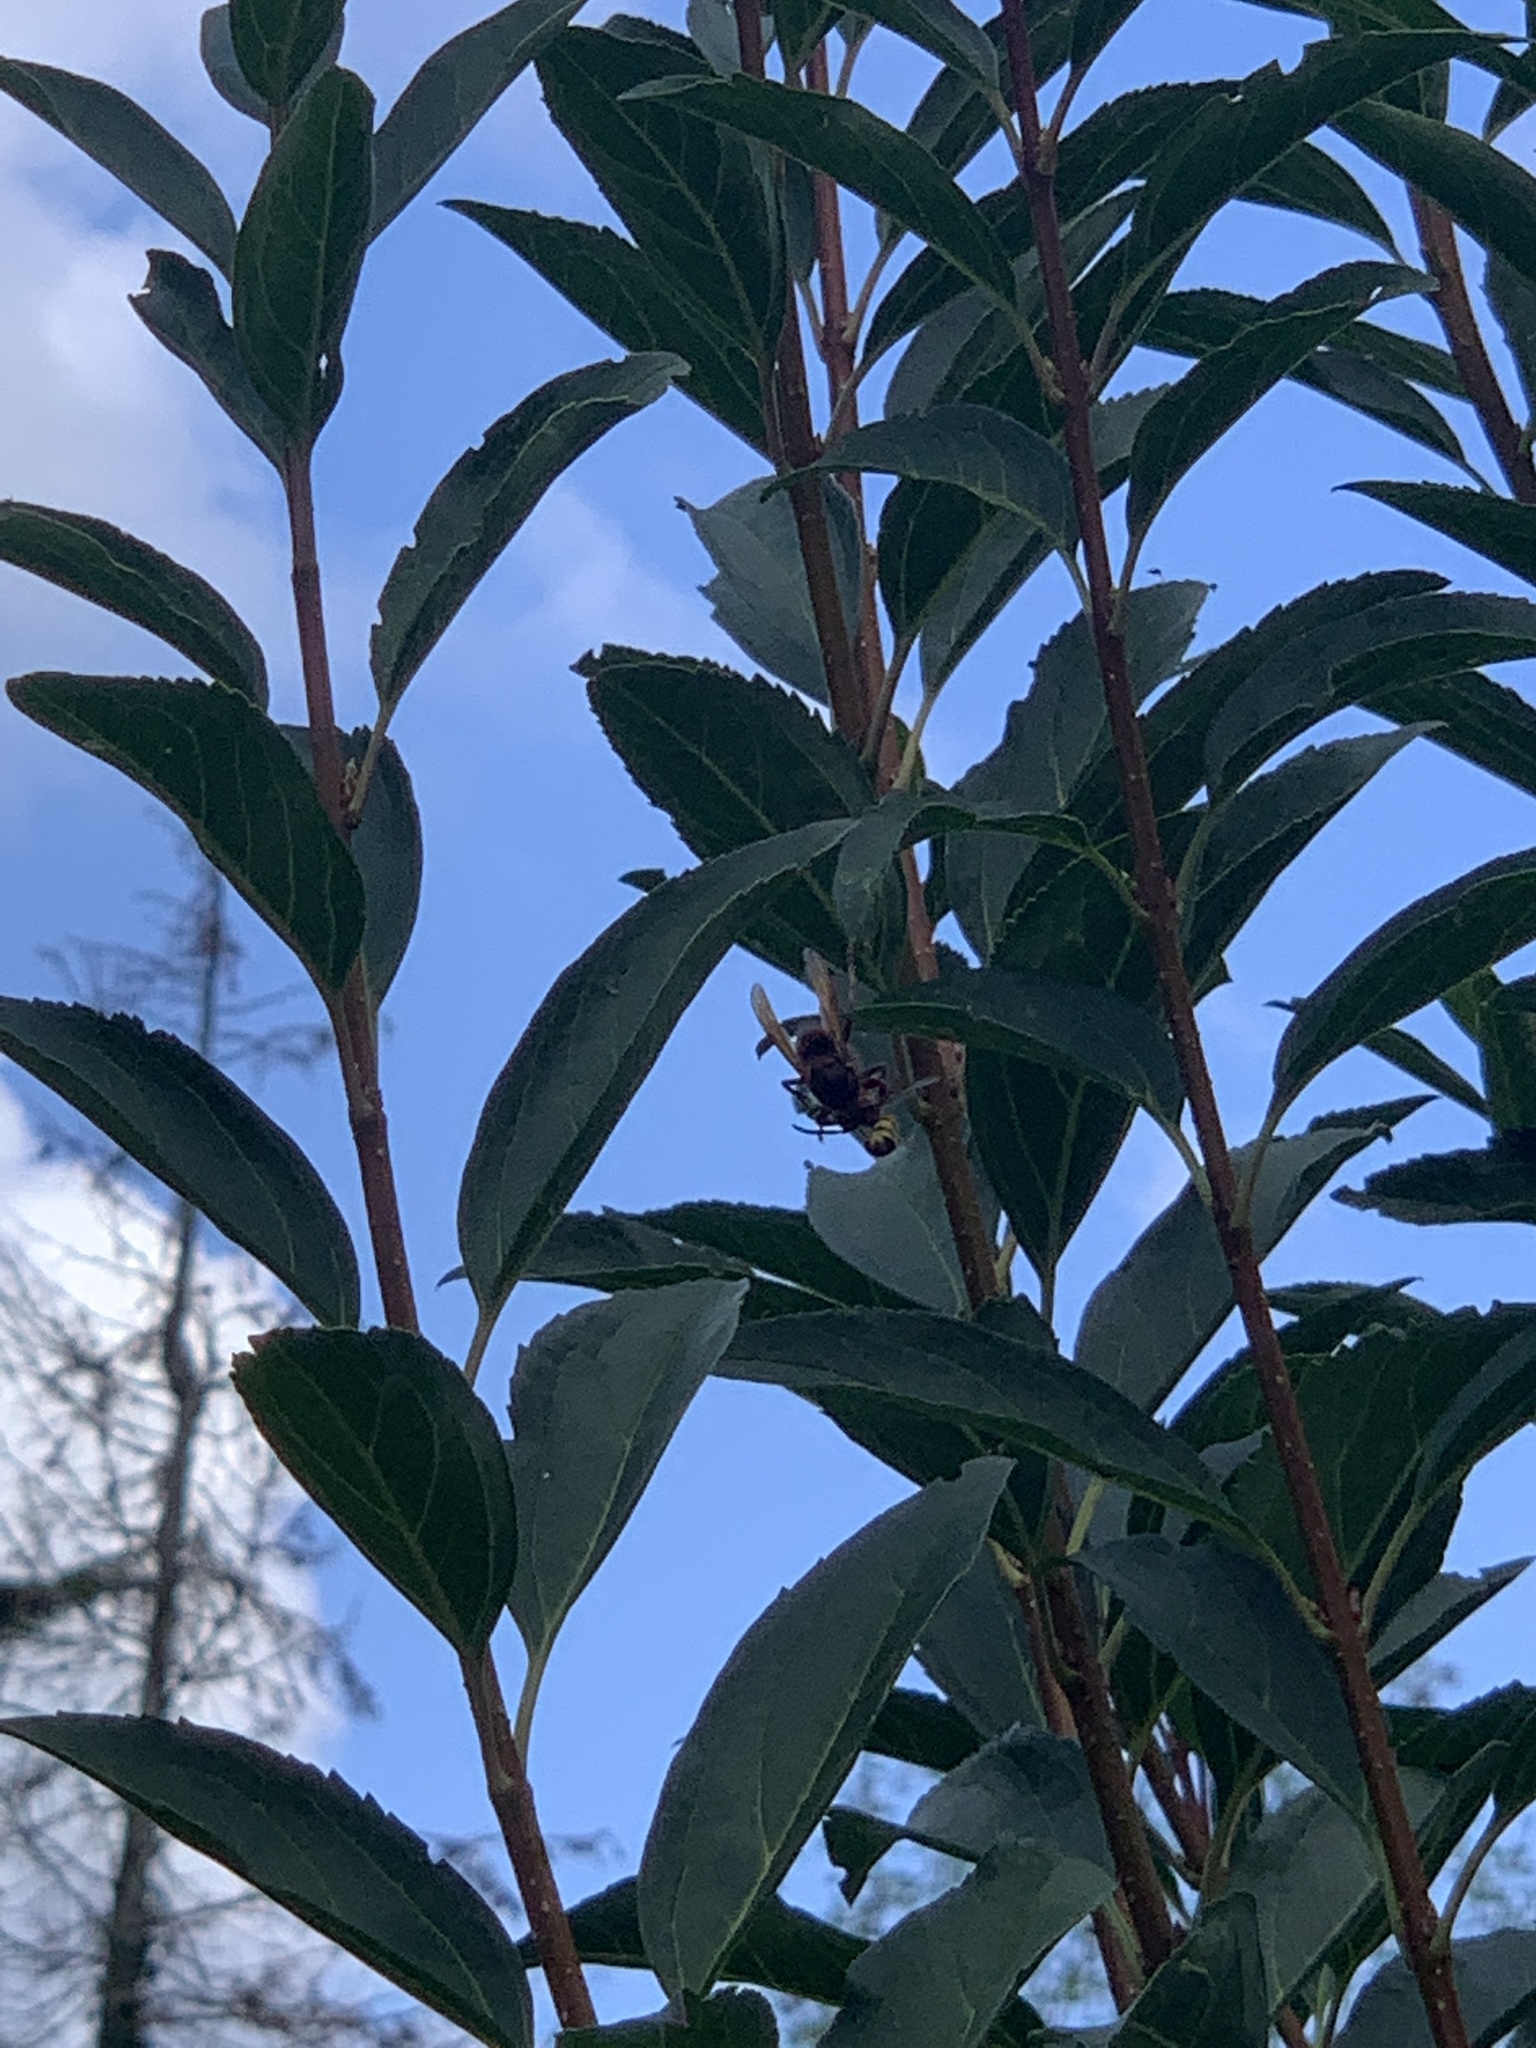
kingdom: Animalia
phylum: Arthropoda
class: Insecta
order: Hymenoptera
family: Vespidae
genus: Vespa
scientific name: Vespa crabro
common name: Hornet
